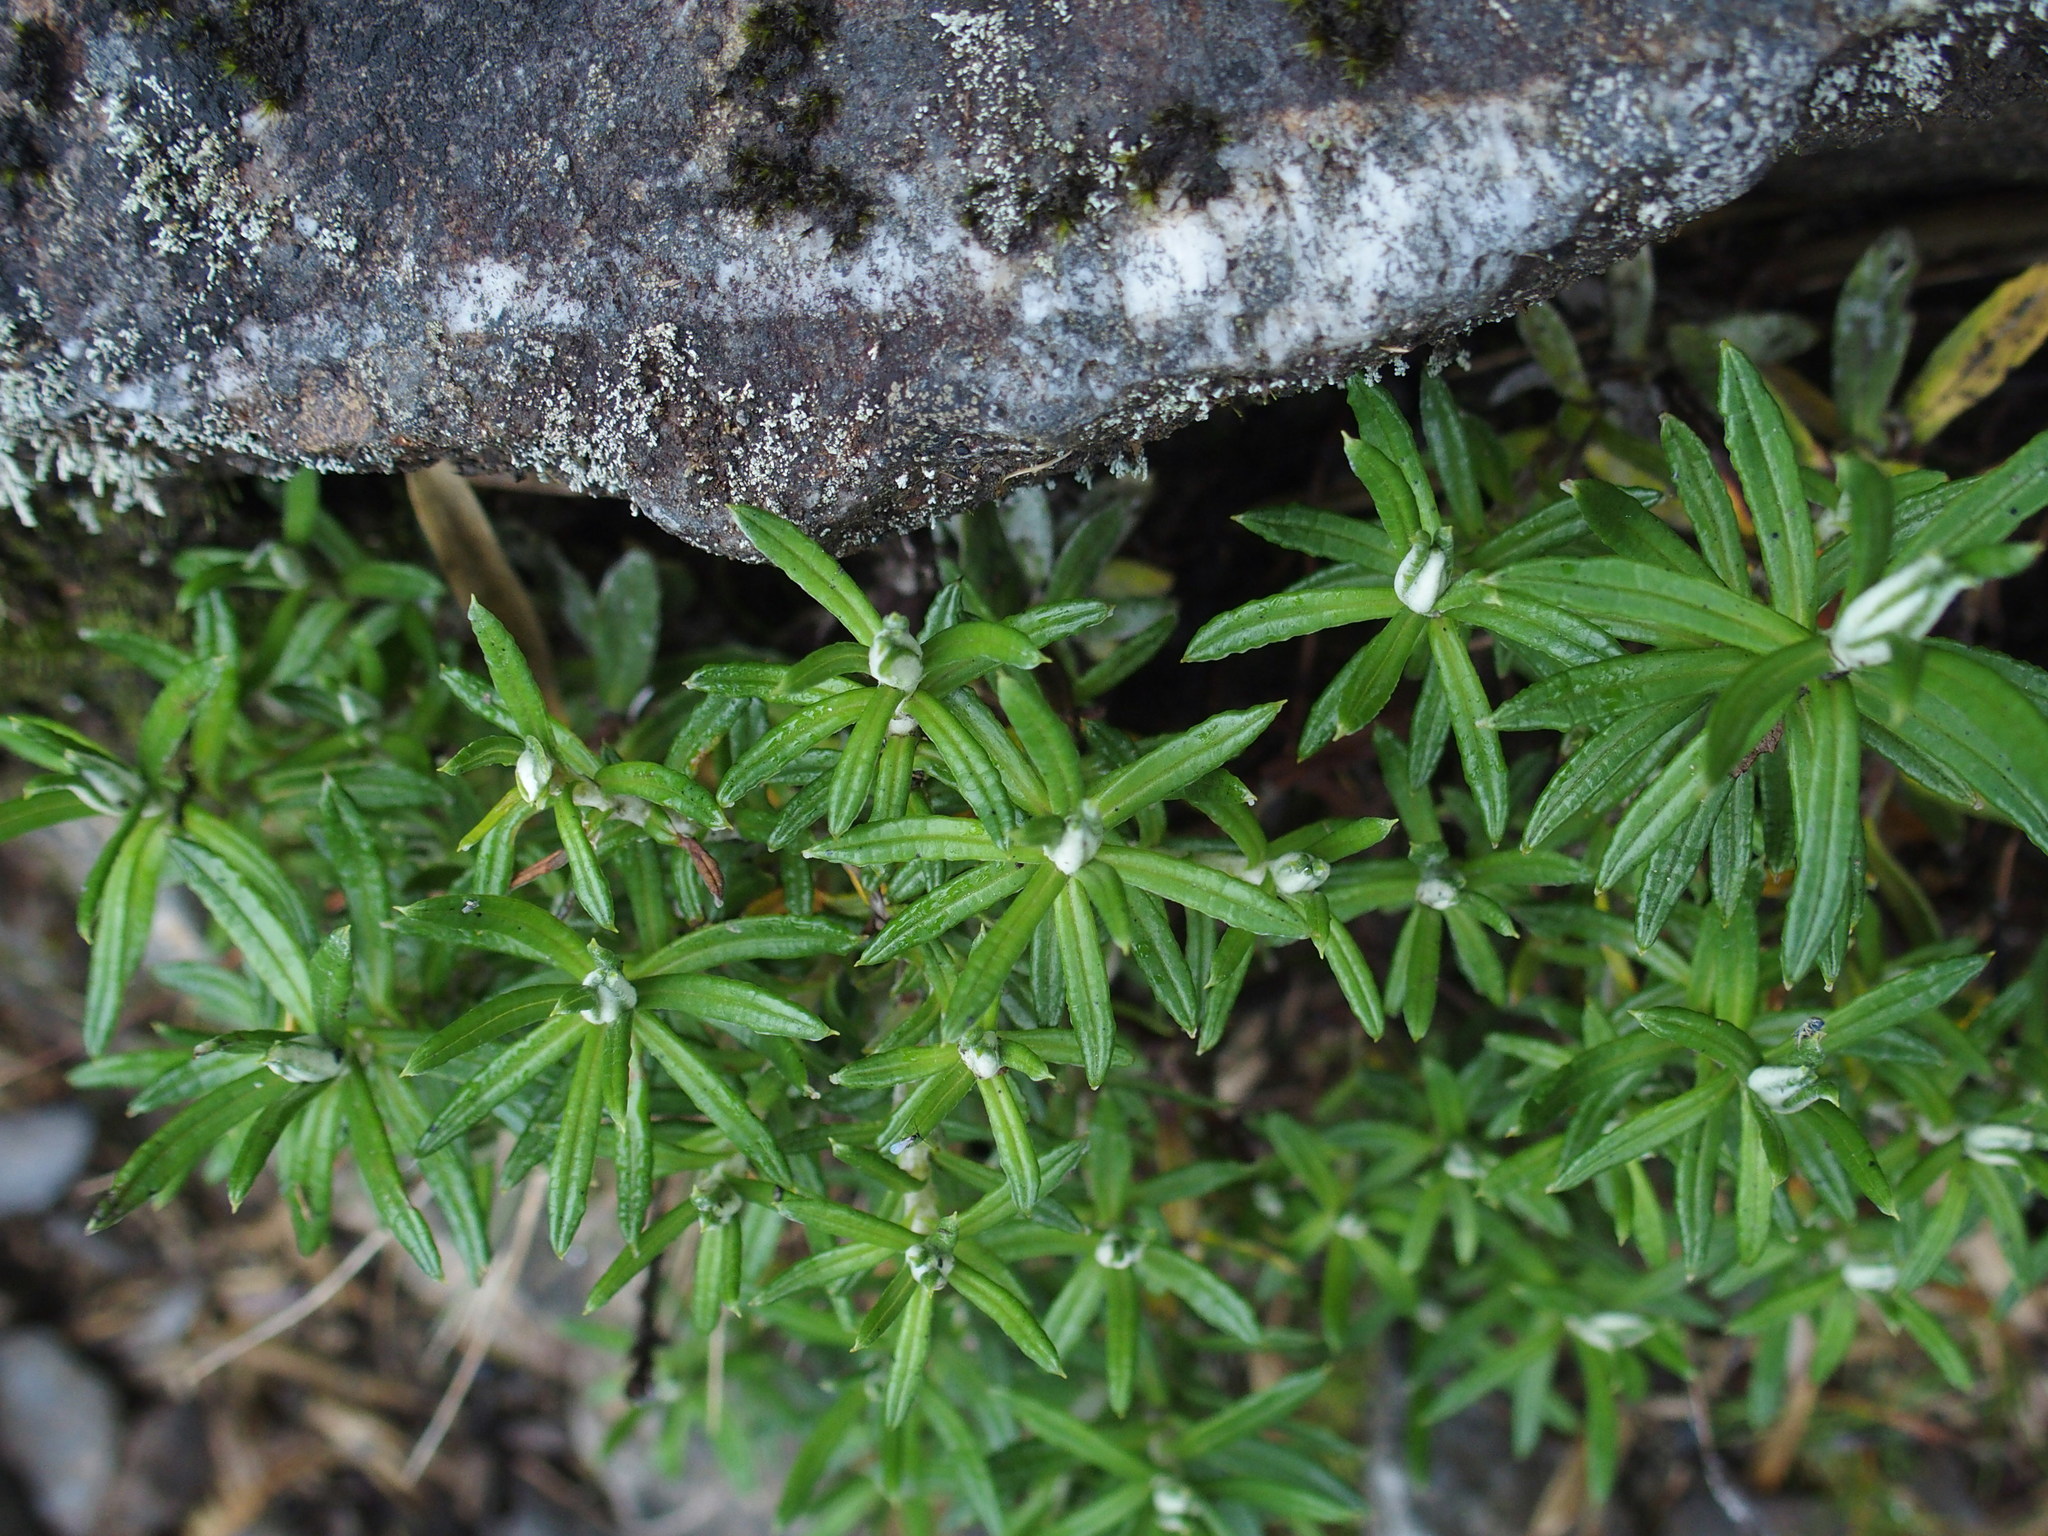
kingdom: Plantae
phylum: Tracheophyta
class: Magnoliopsida
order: Asterales
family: Asteraceae
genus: Anaphalis
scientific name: Anaphalis morrisonicola
